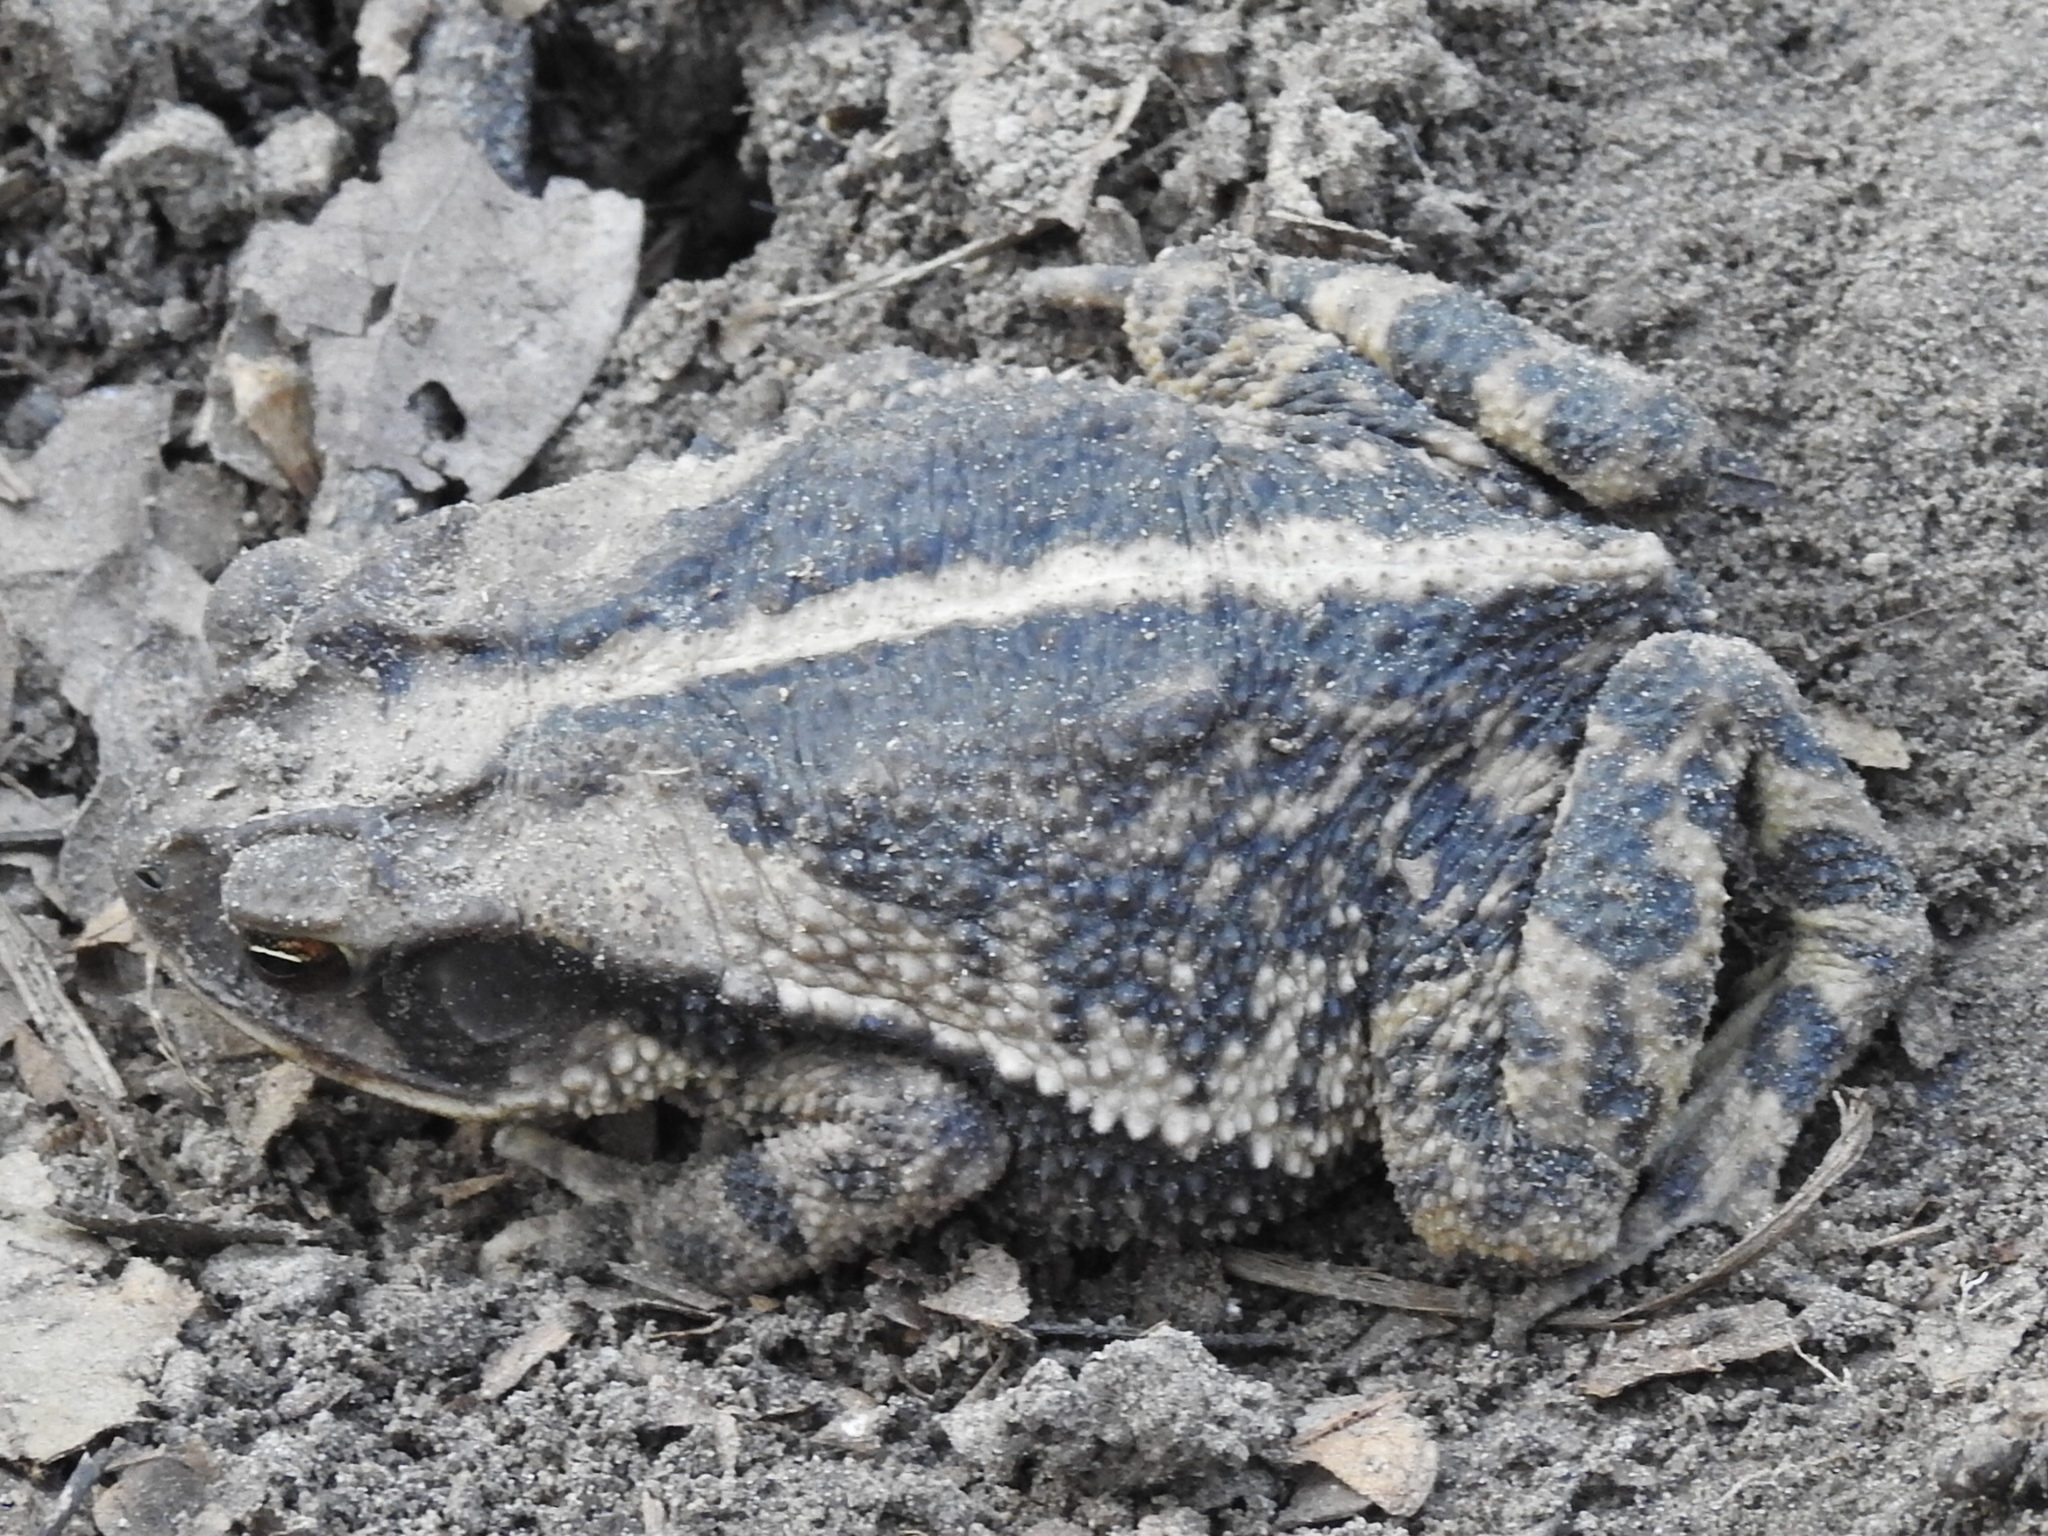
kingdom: Animalia
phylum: Chordata
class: Amphibia
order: Anura
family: Bufonidae
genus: Incilius
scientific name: Incilius nebulifer
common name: Gulf coast toad
